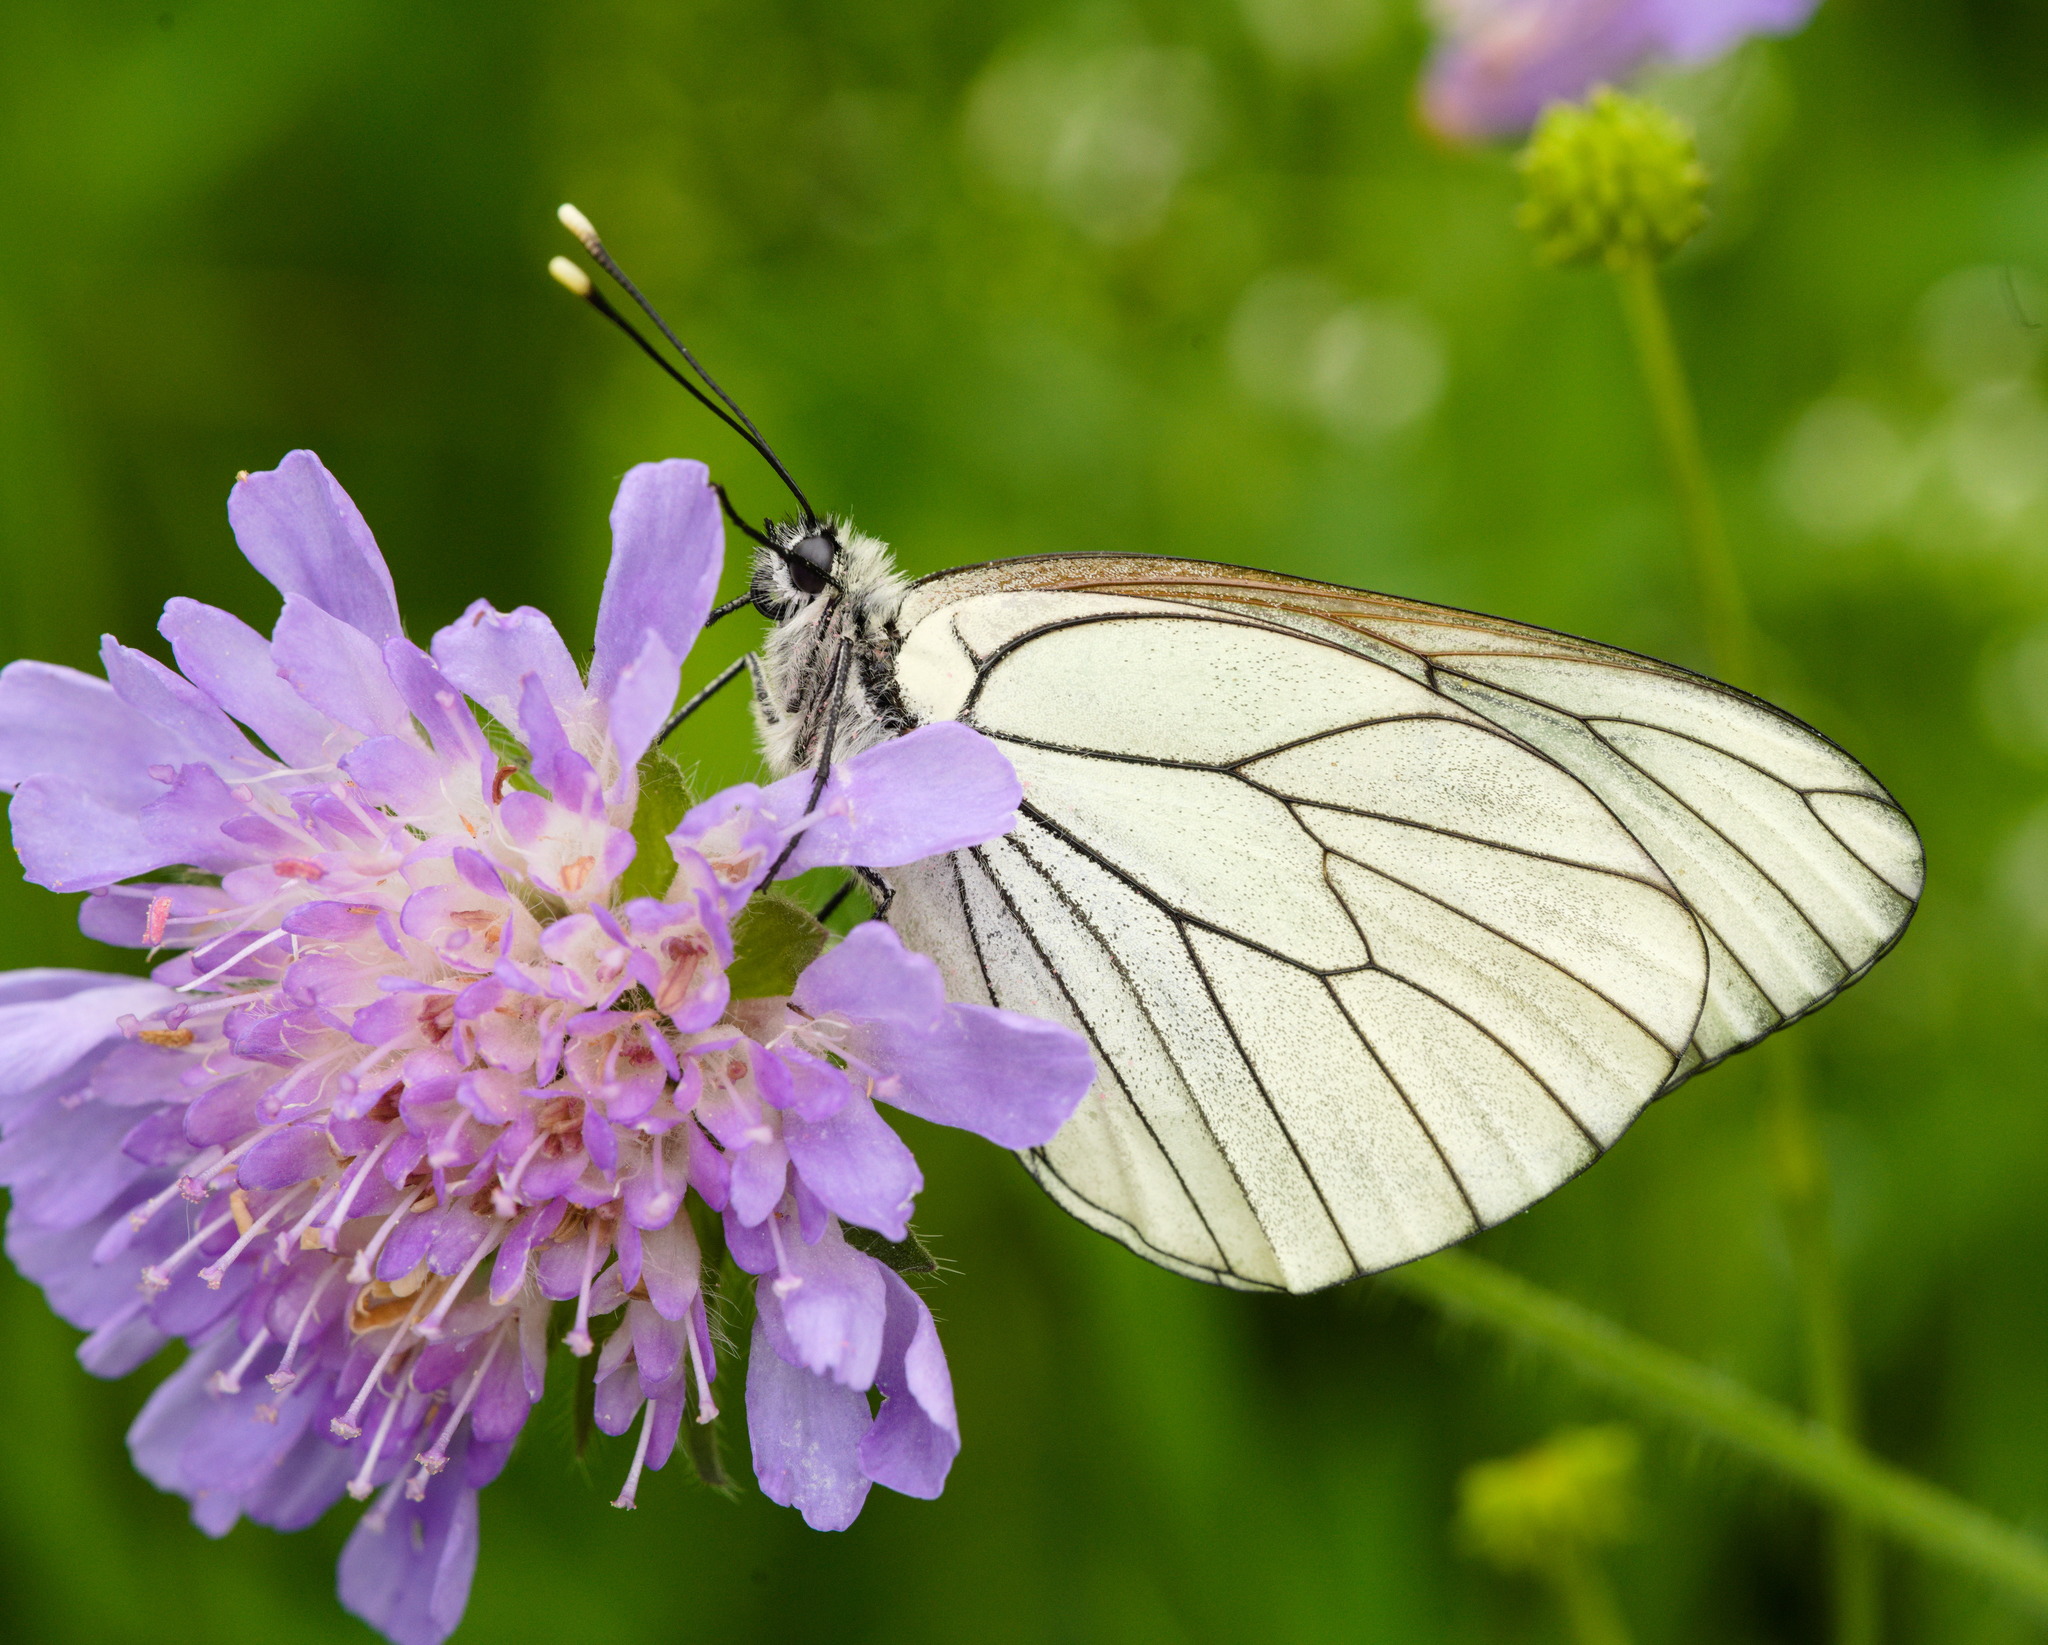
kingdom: Animalia
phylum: Arthropoda
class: Insecta
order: Lepidoptera
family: Pieridae
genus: Aporia
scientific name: Aporia crataegi
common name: Black-veined white
